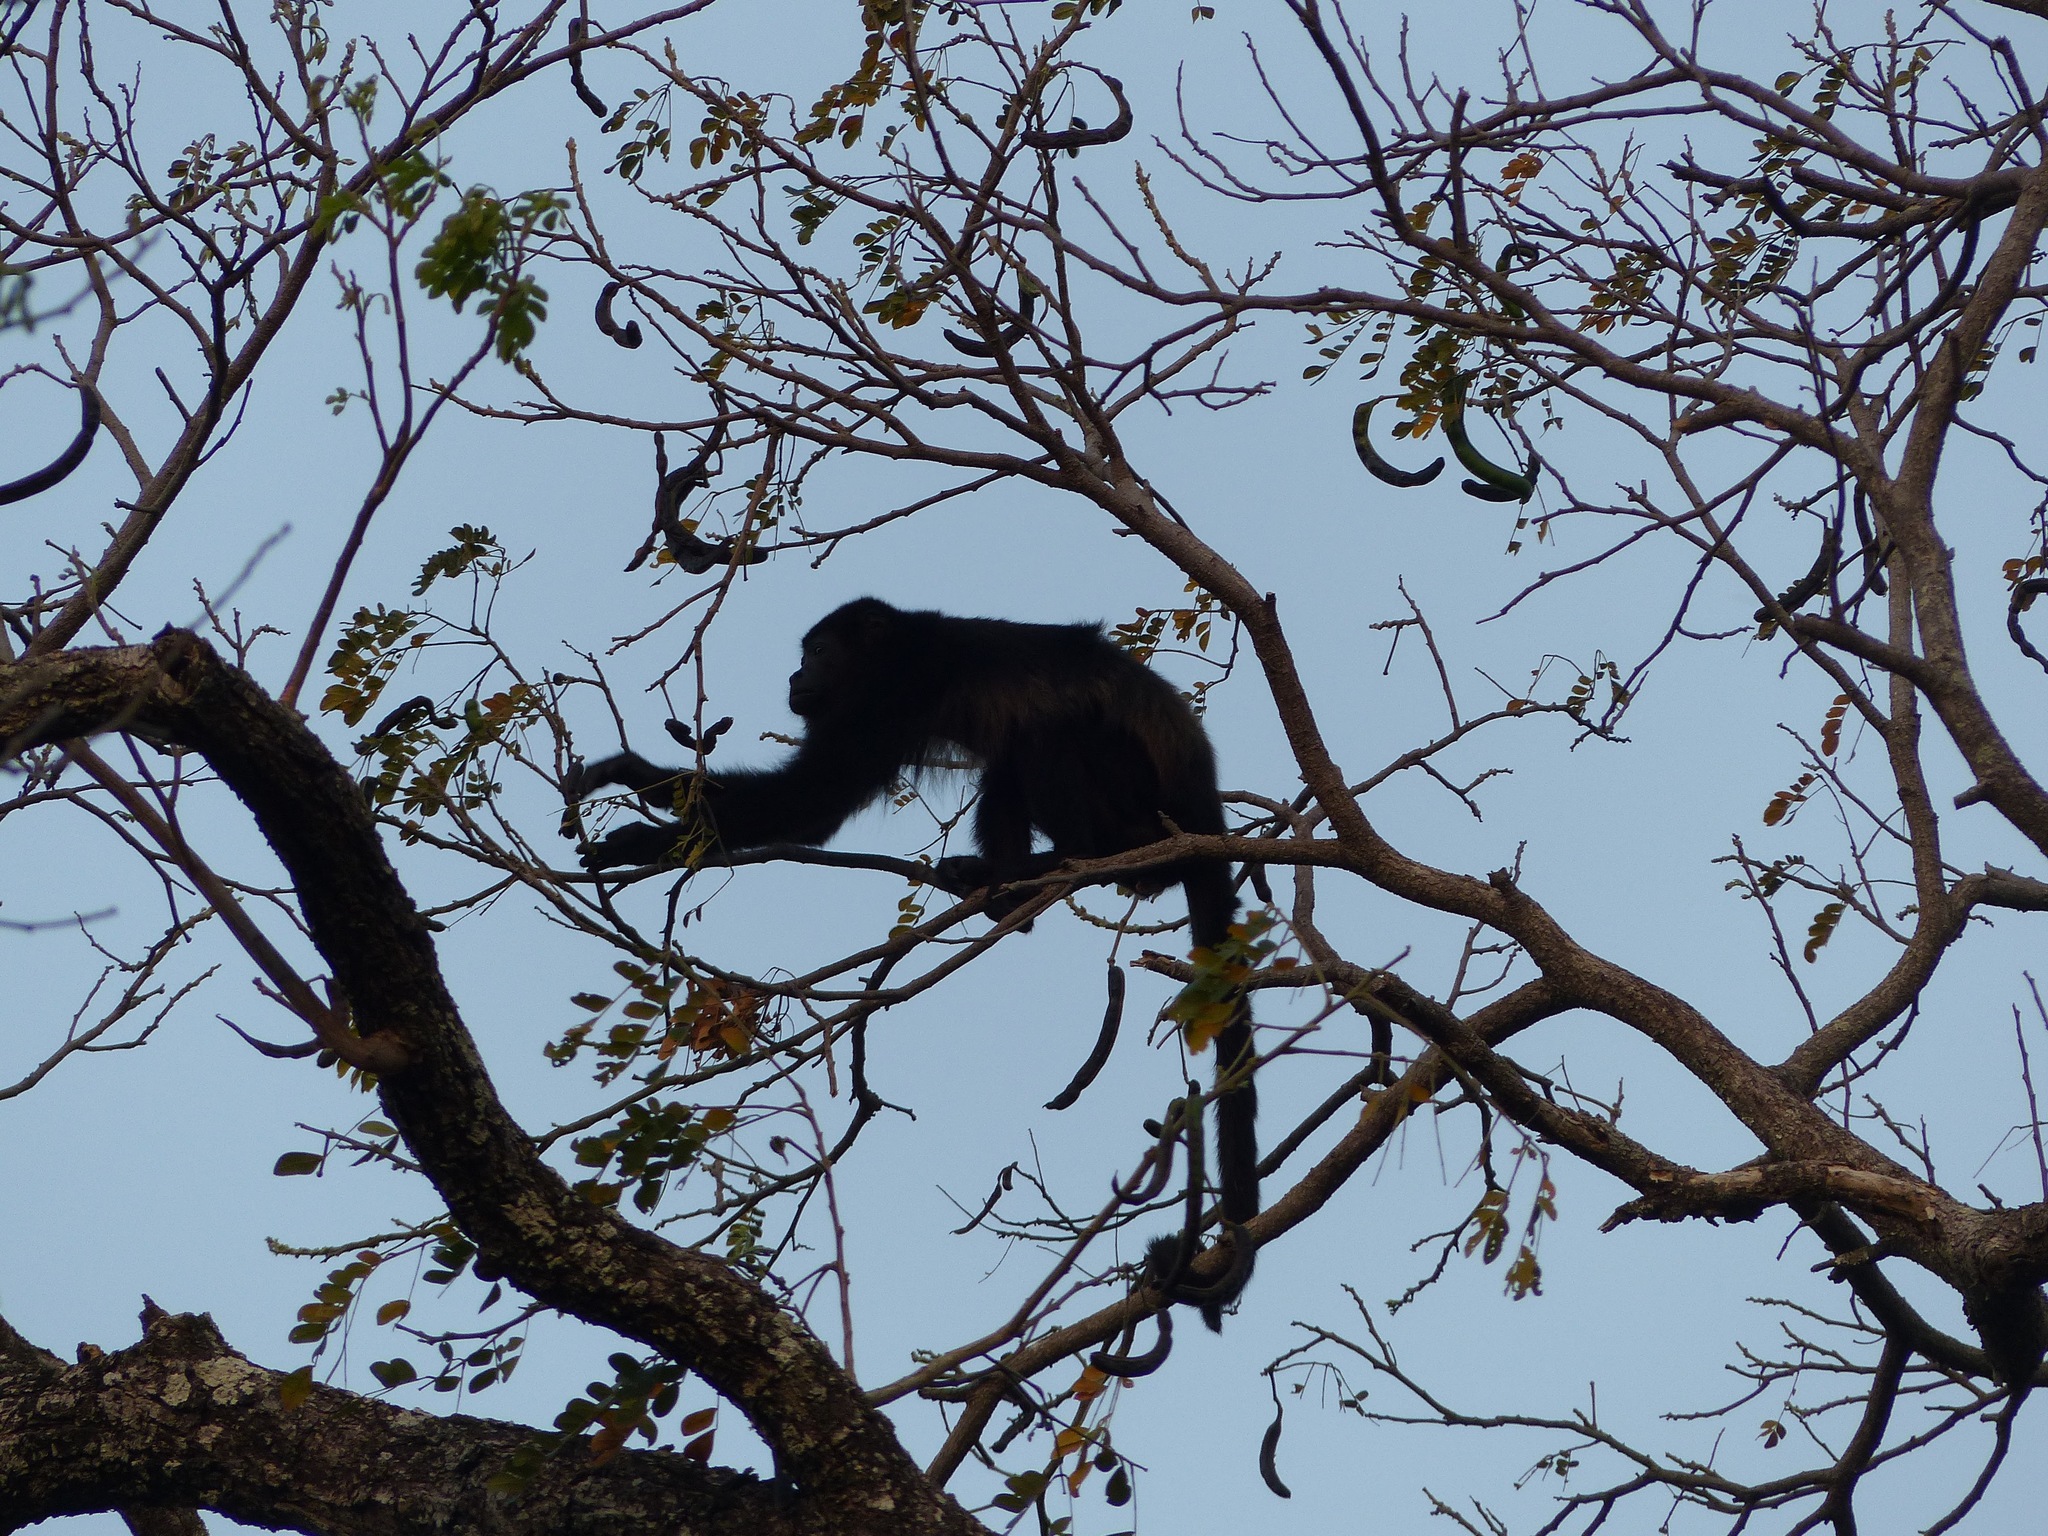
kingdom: Animalia
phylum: Chordata
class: Mammalia
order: Primates
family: Atelidae
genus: Alouatta
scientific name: Alouatta palliata
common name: Mantled howler
